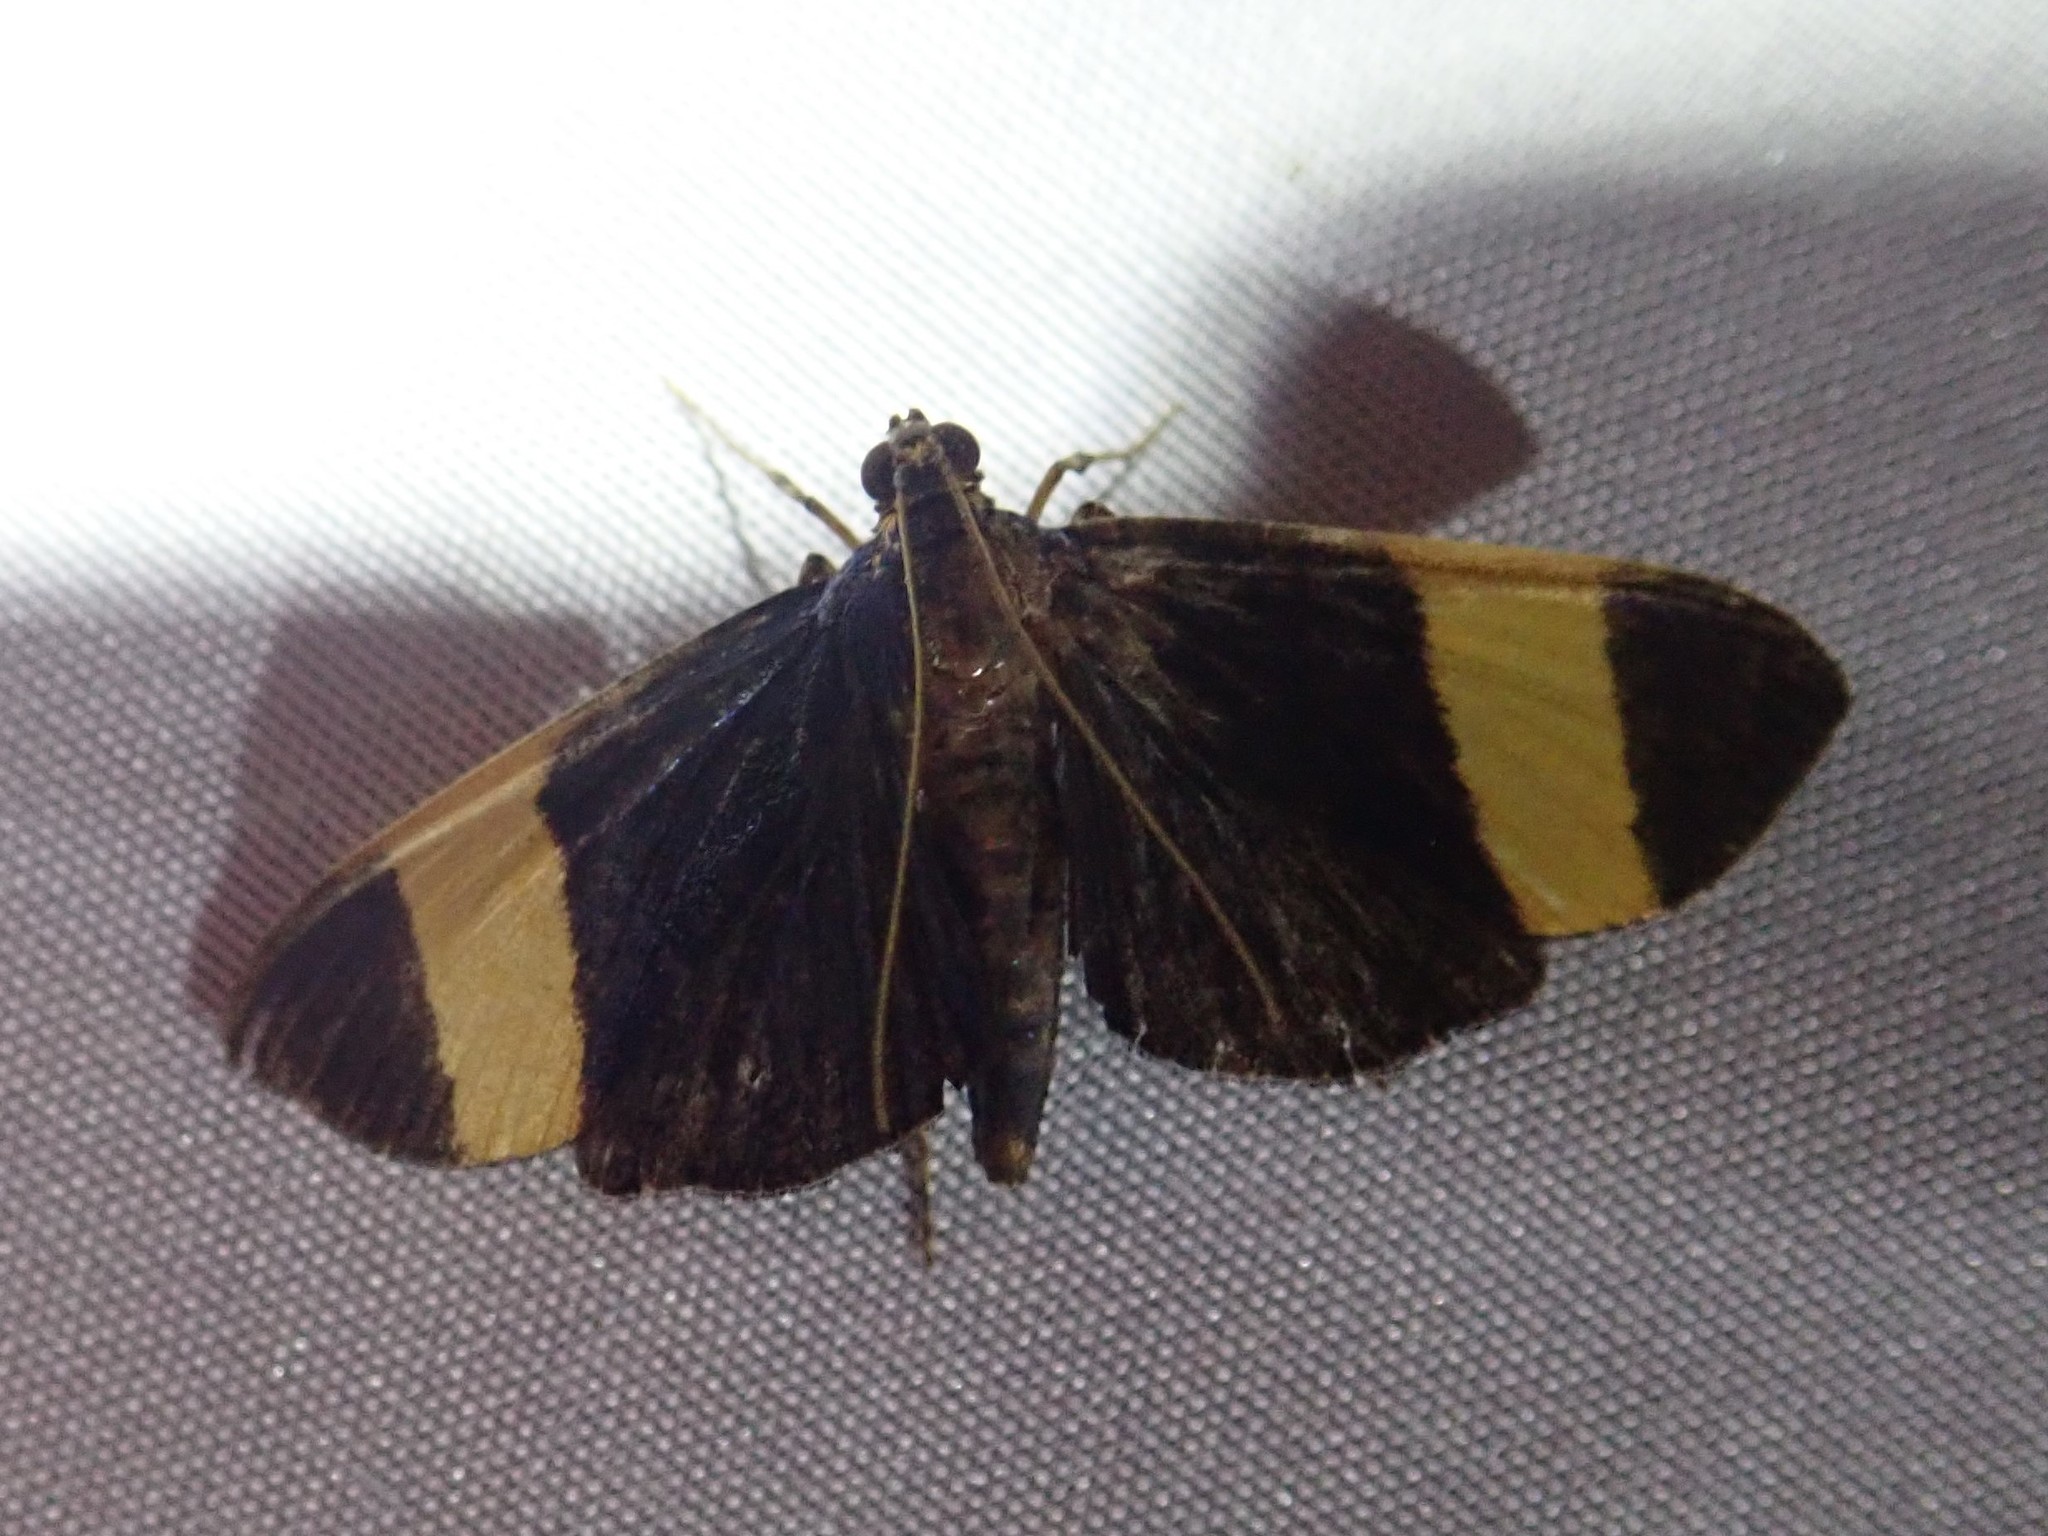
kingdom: Animalia
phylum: Arthropoda
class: Insecta
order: Lepidoptera
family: Crambidae
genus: Pilocrocis
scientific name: Pilocrocis xanthozonalis
